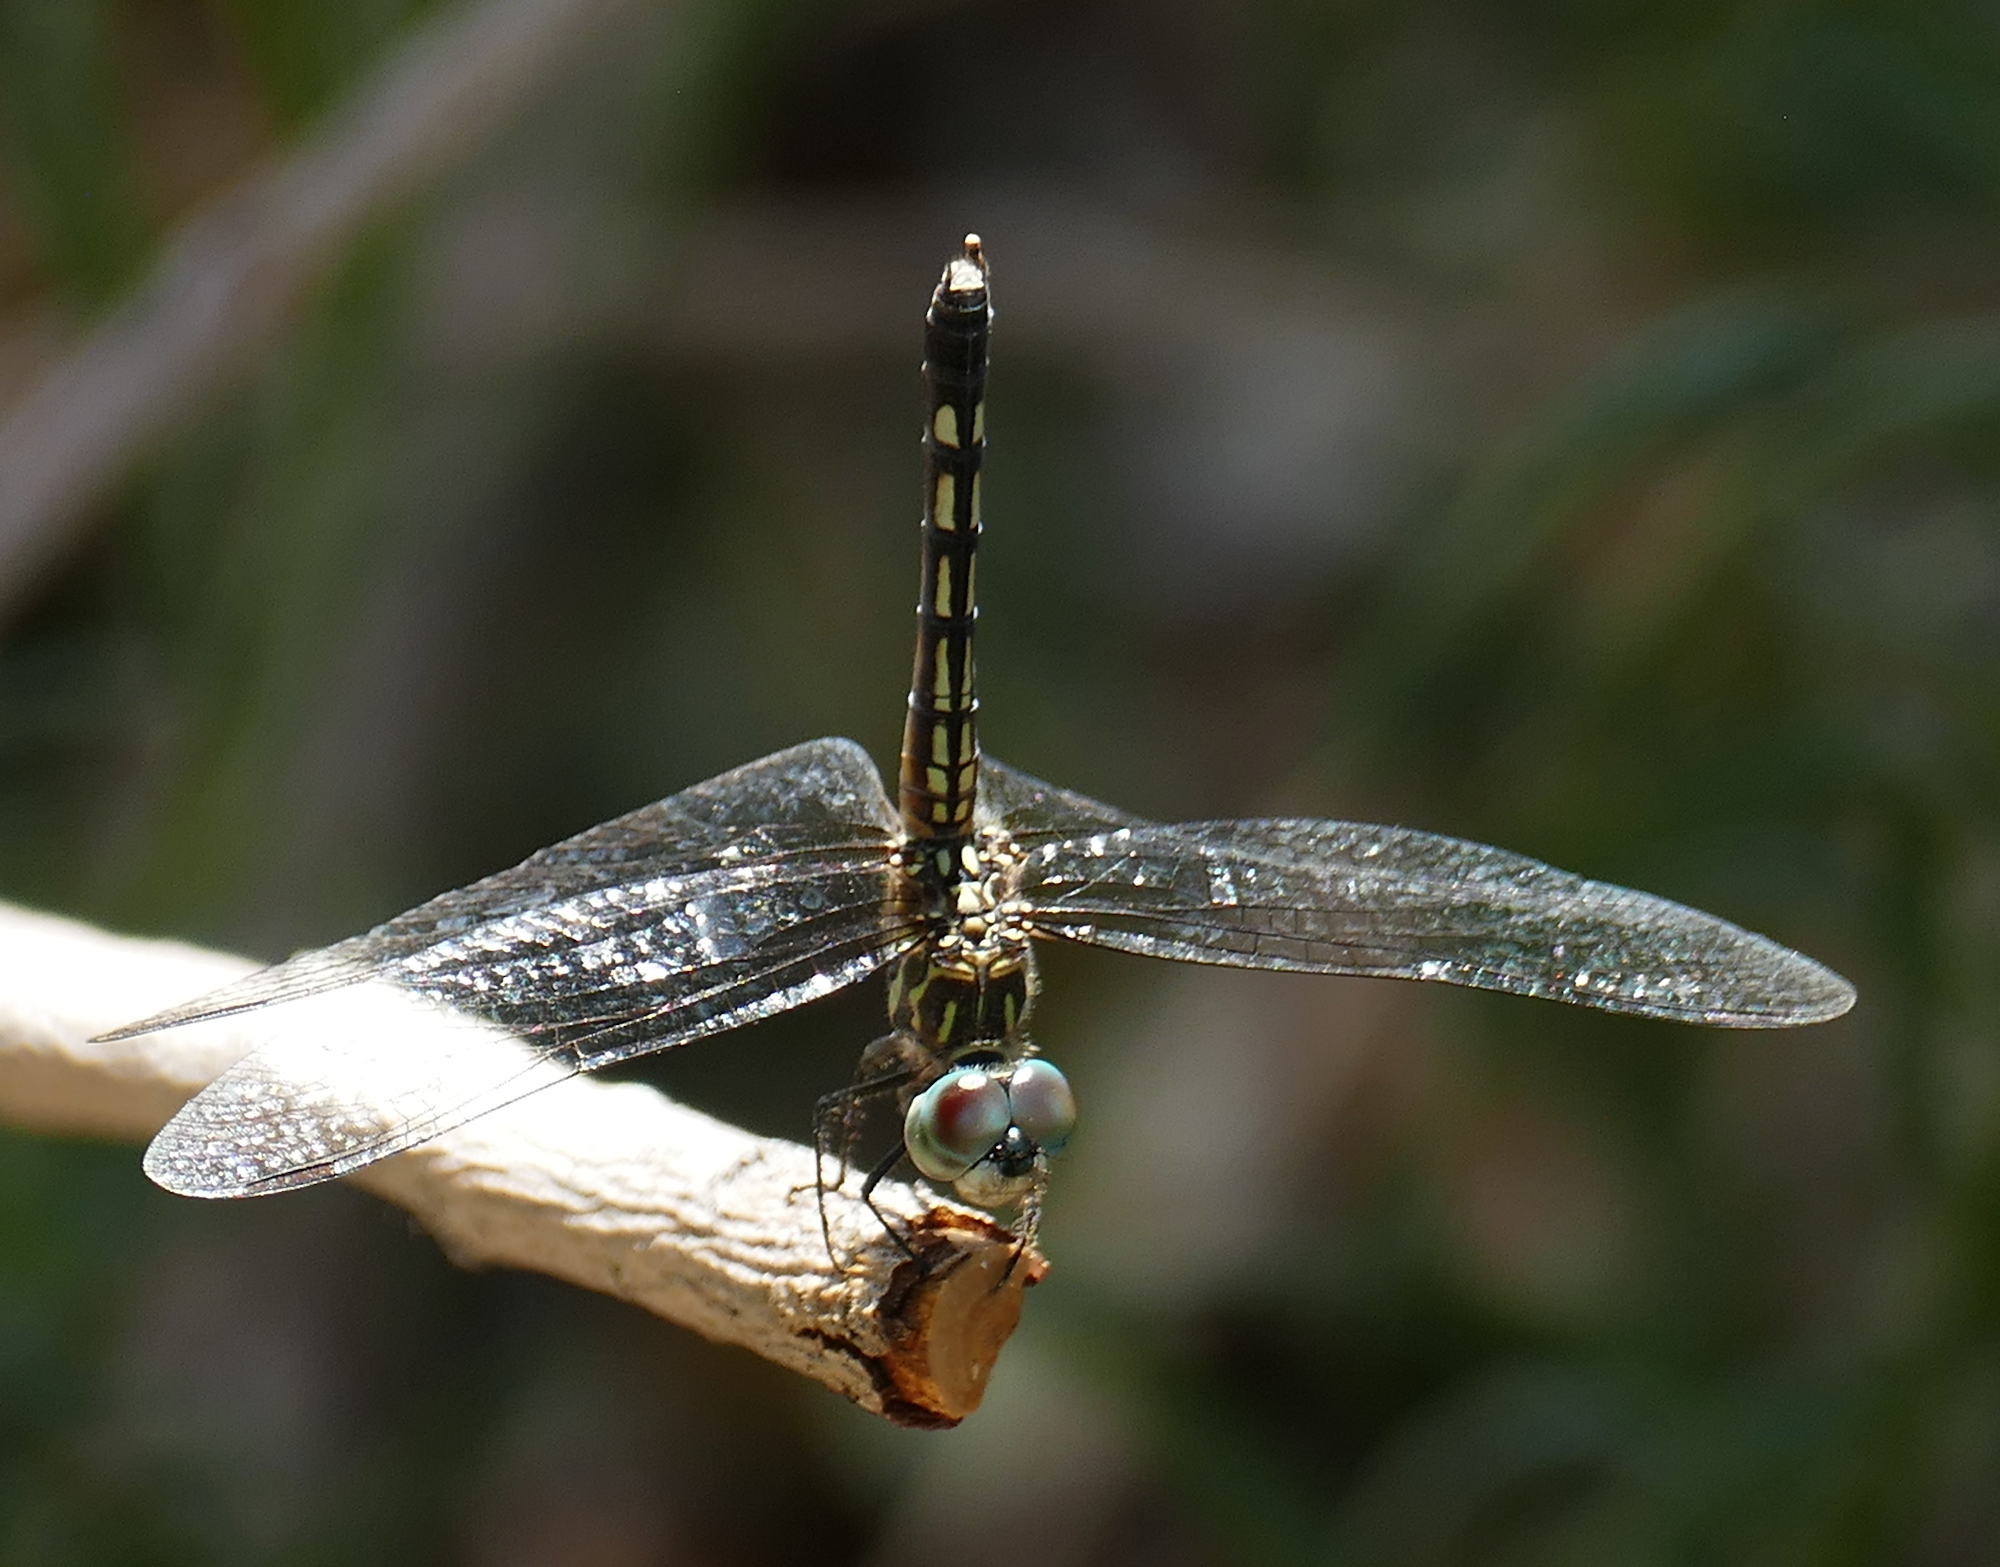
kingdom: Animalia
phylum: Arthropoda
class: Insecta
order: Odonata
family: Libellulidae
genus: Pachydiplax
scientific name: Pachydiplax longipennis
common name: Blue dasher
